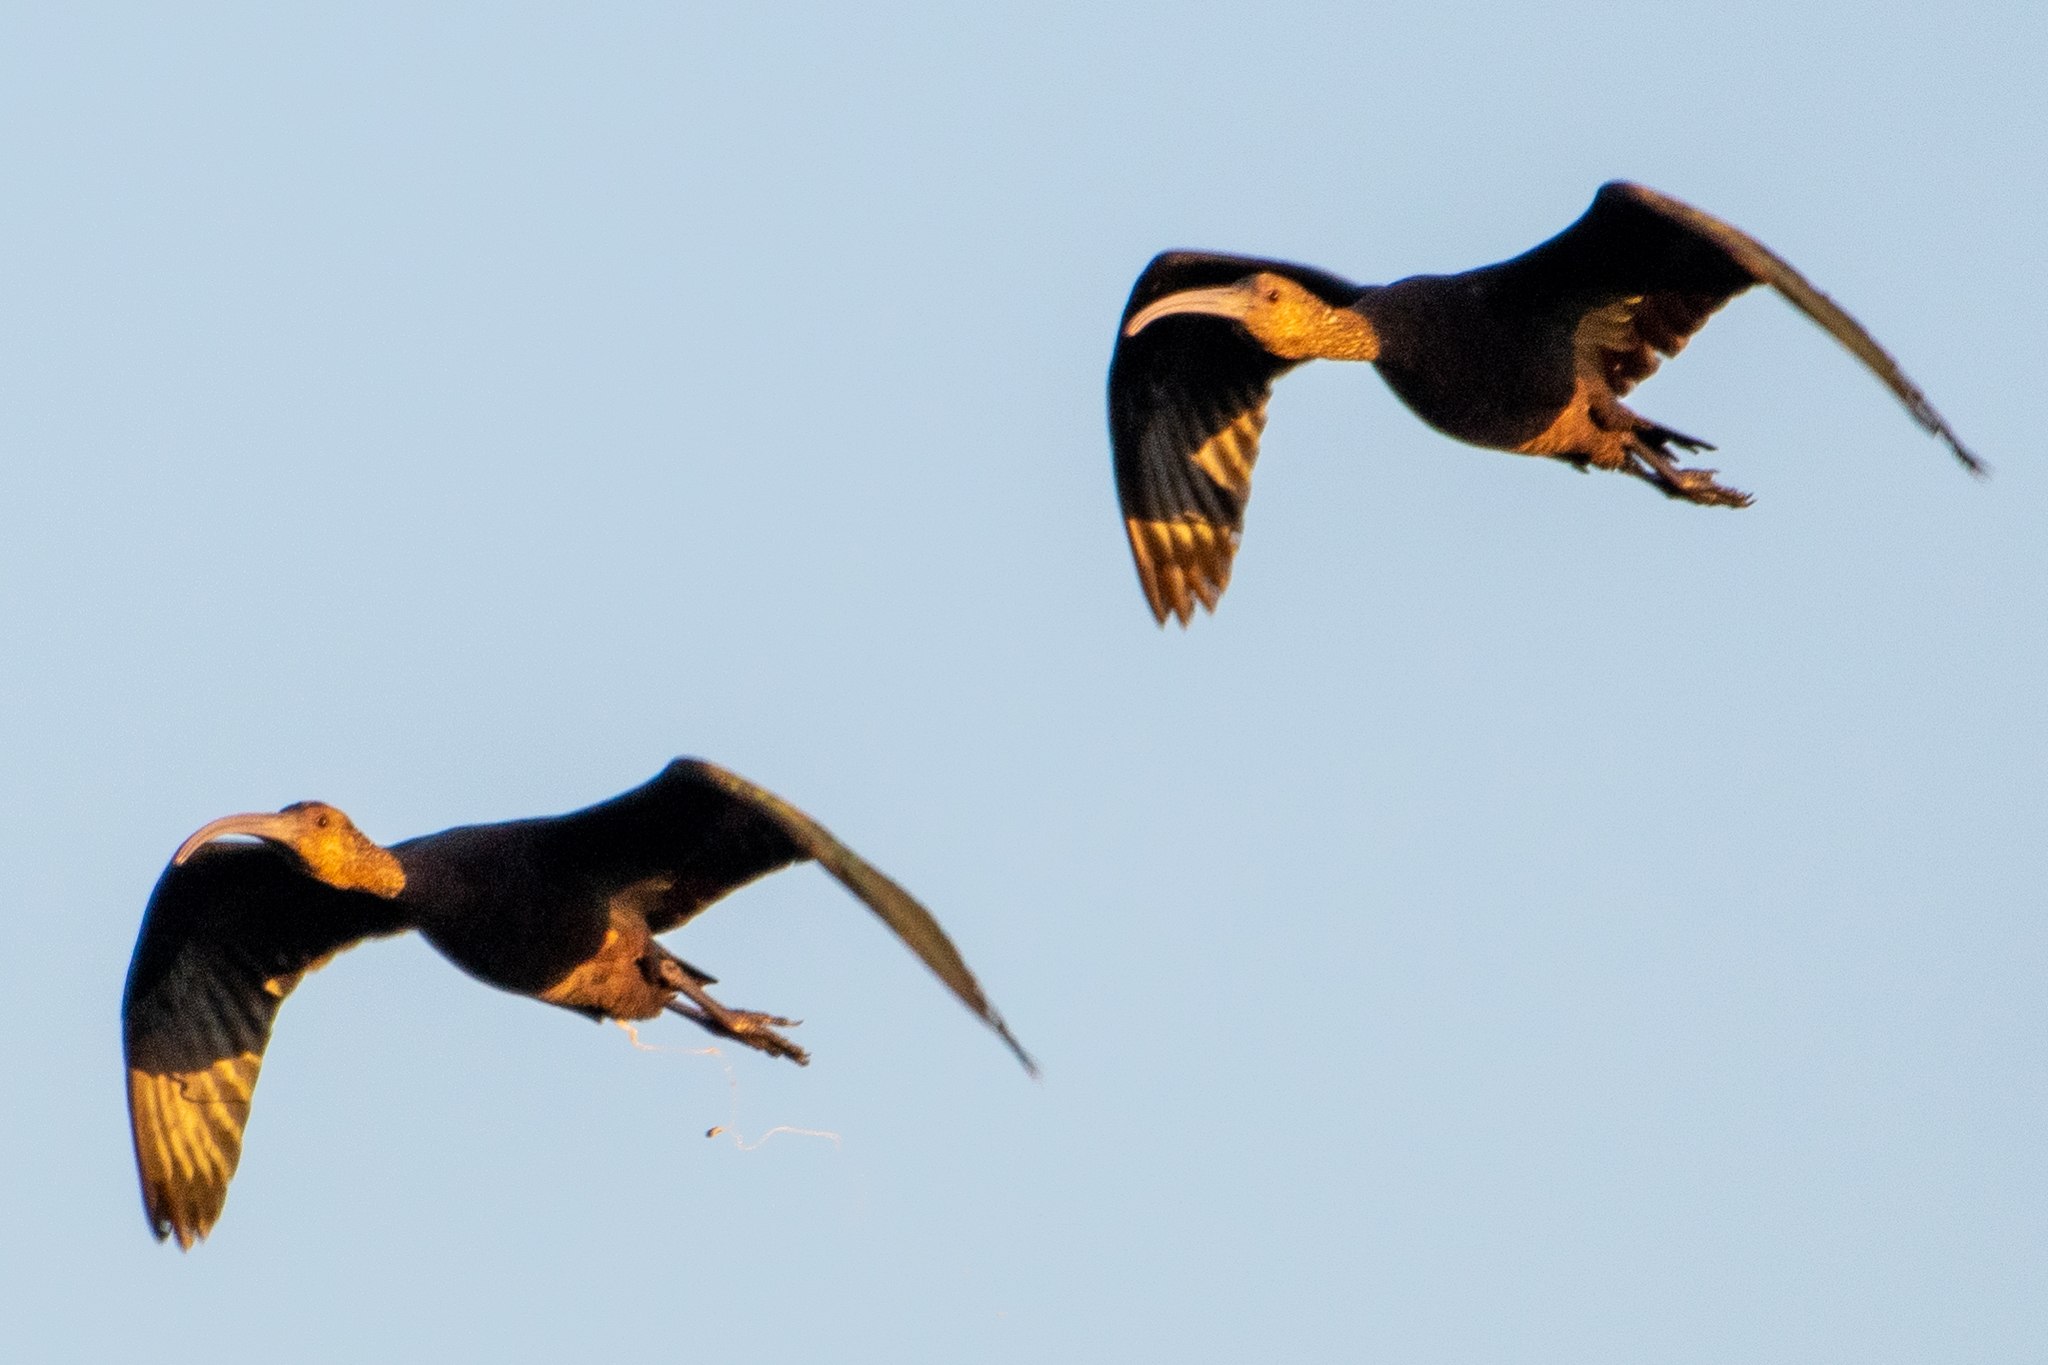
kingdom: Animalia
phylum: Chordata
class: Aves
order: Pelecaniformes
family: Threskiornithidae
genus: Plegadis
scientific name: Plegadis chihi
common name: White-faced ibis
